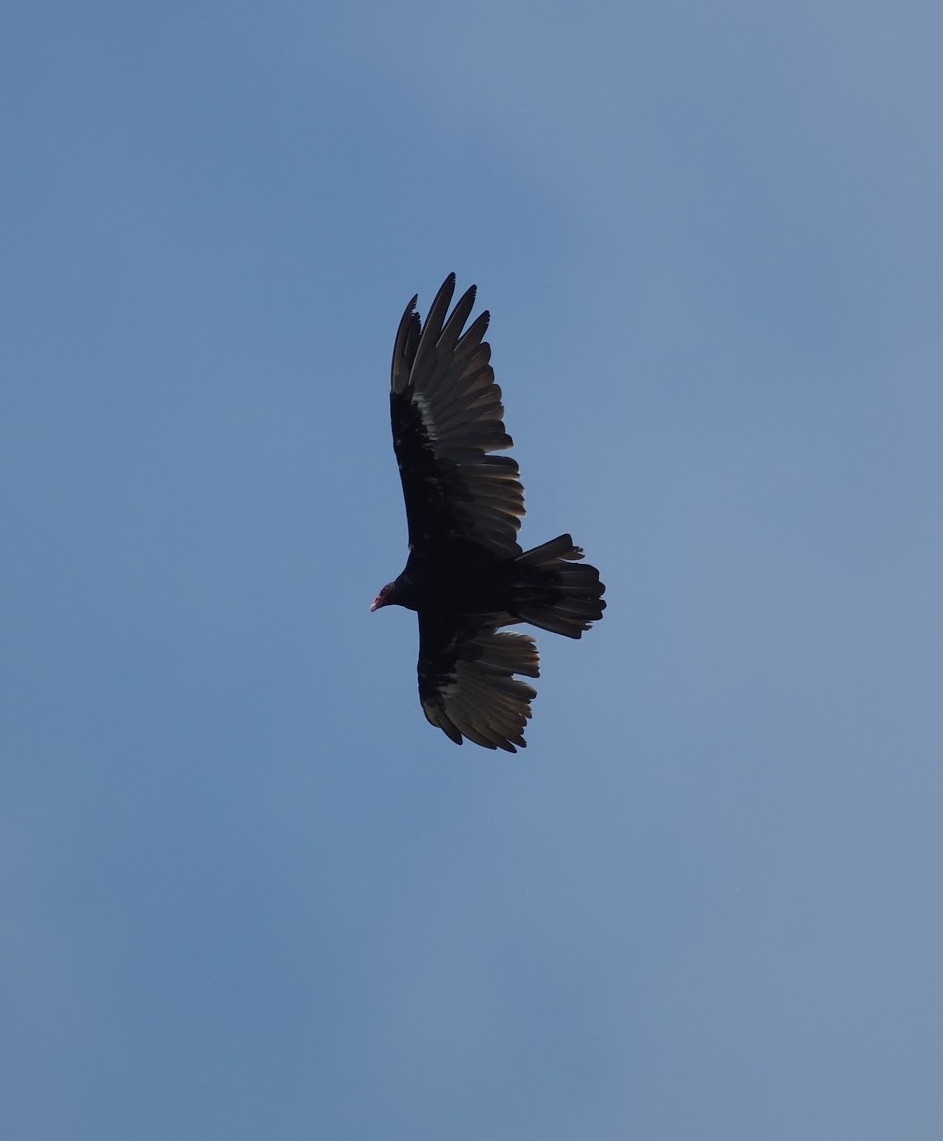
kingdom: Animalia
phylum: Chordata
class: Aves
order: Accipitriformes
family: Cathartidae
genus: Cathartes
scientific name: Cathartes aura
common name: Turkey vulture
